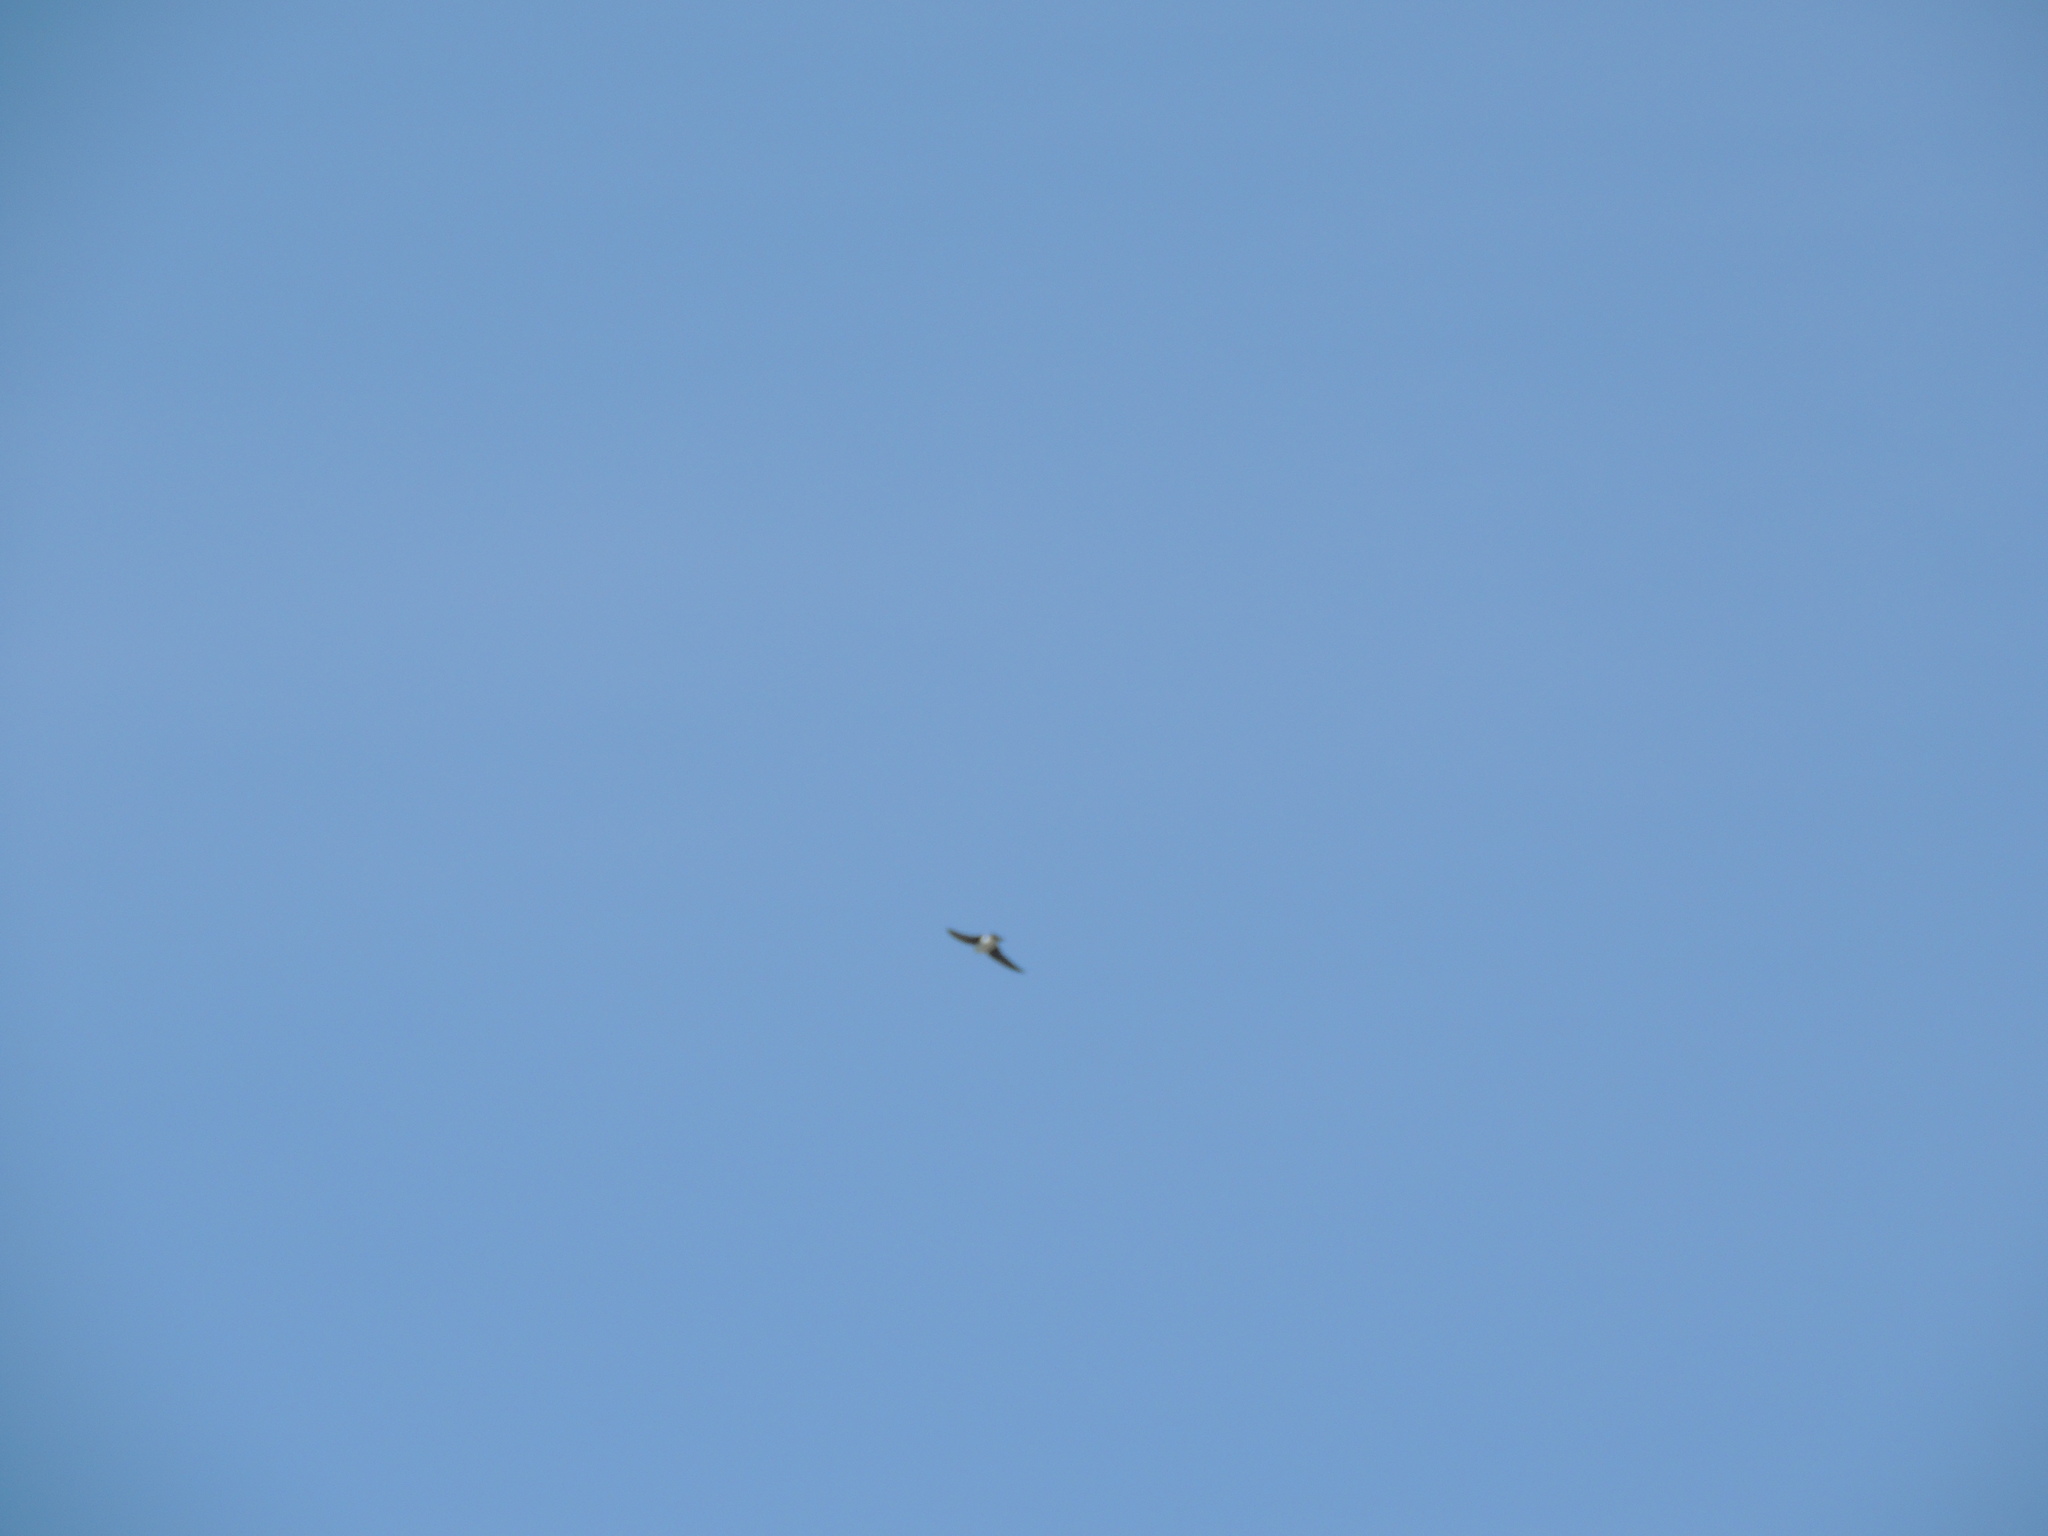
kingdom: Animalia
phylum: Chordata
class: Aves
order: Passeriformes
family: Hirundinidae
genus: Tachycineta
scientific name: Tachycineta bicolor
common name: Tree swallow
